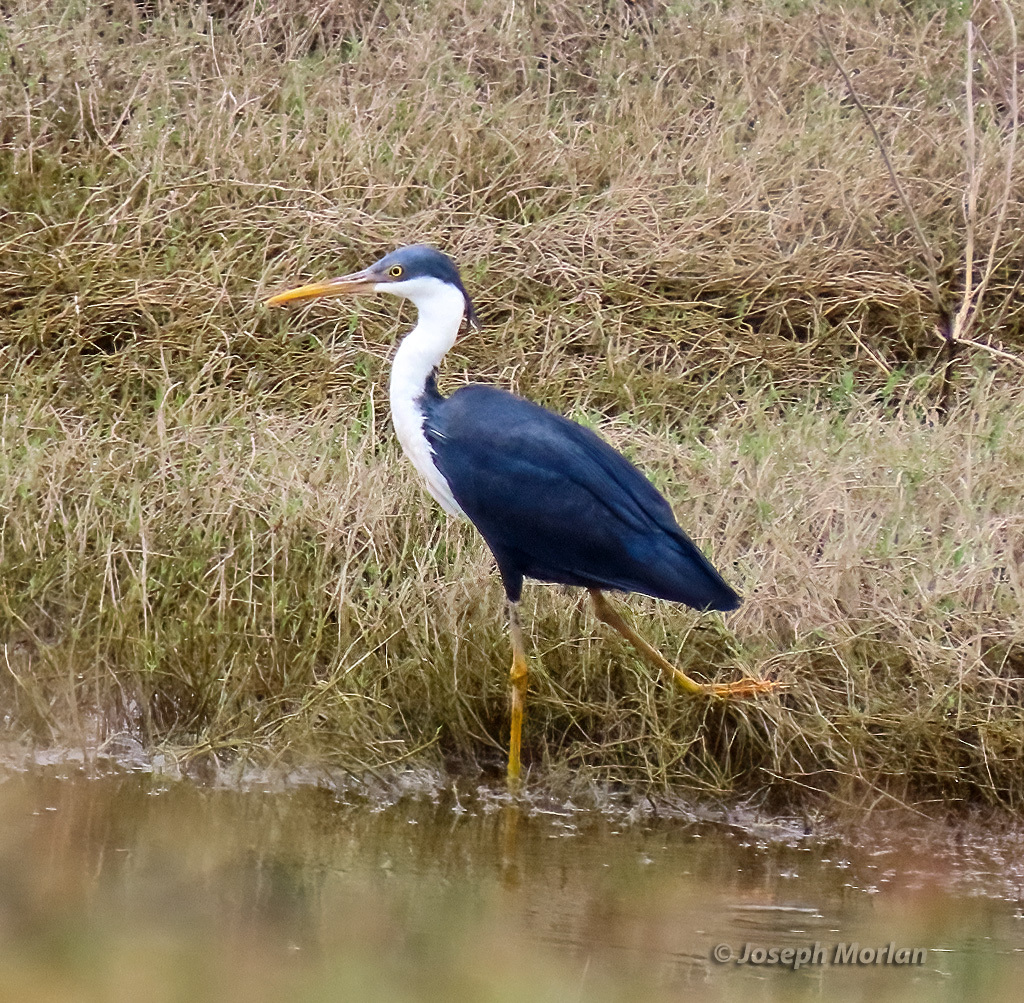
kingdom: Animalia
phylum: Chordata
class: Aves
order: Pelecaniformes
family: Ardeidae
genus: Egretta
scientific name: Egretta picata
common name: Pied heron
